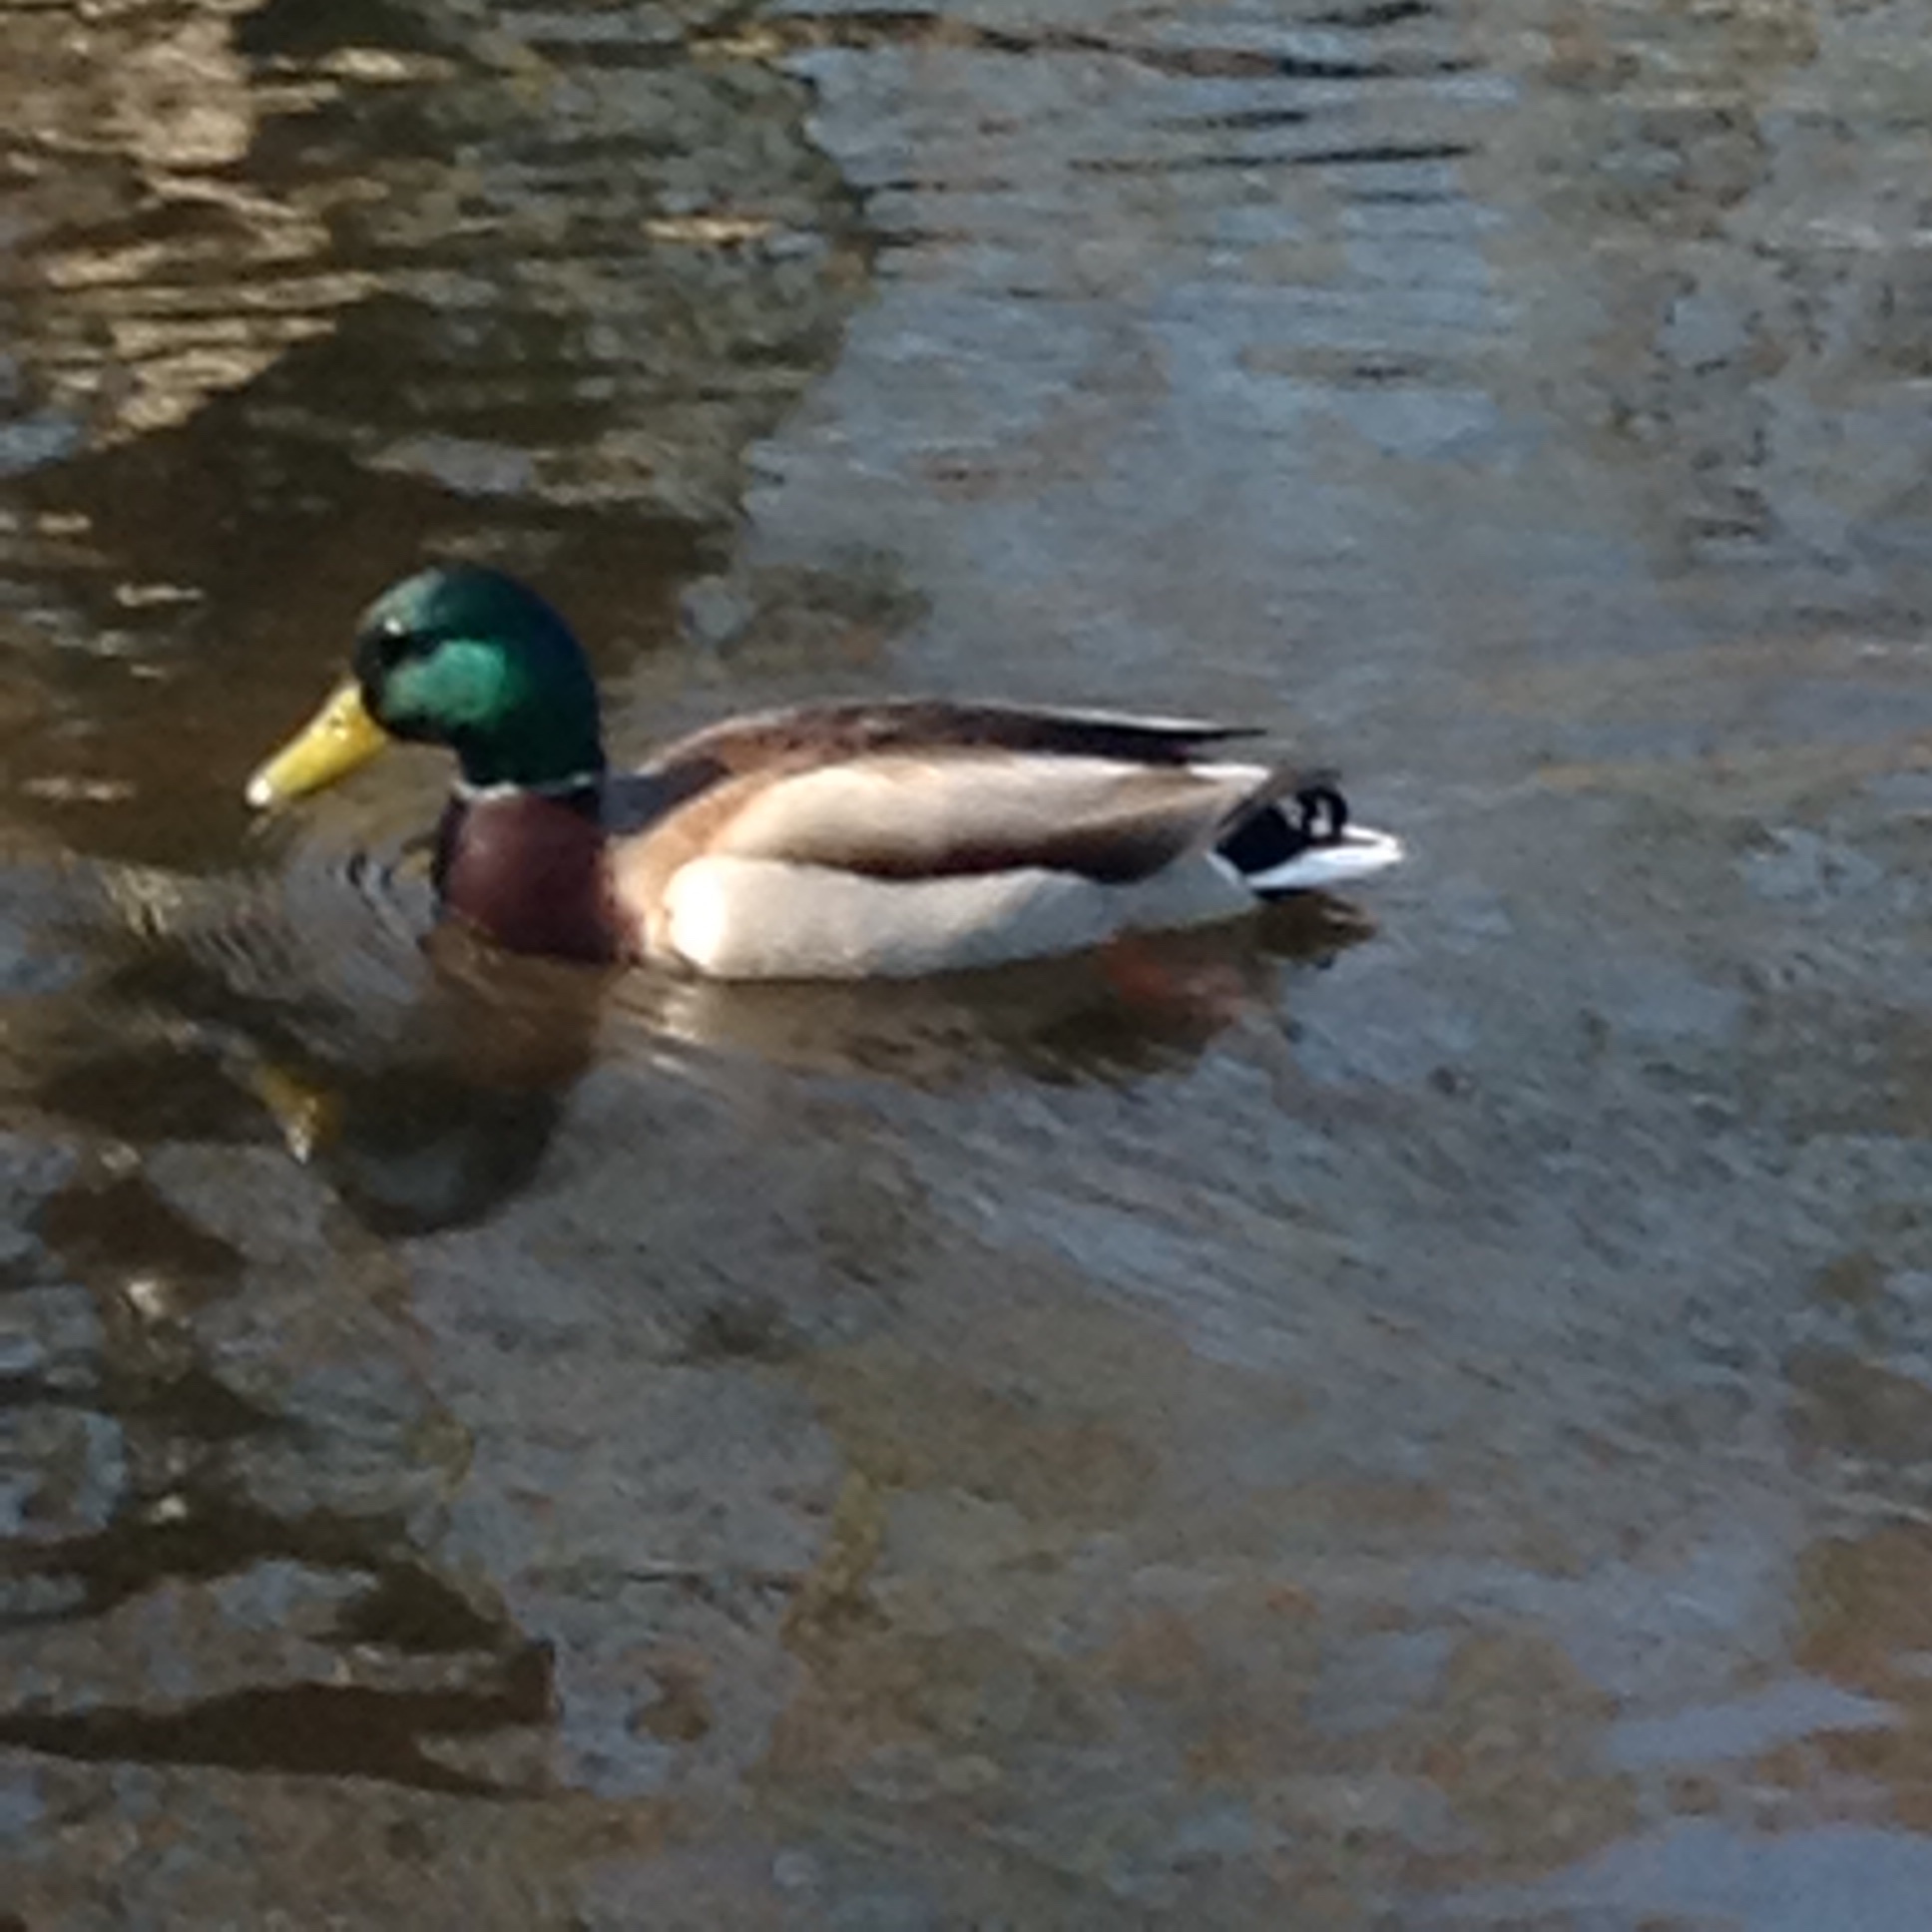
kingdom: Animalia
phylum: Chordata
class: Aves
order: Anseriformes
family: Anatidae
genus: Anas
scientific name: Anas platyrhynchos
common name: Mallard
